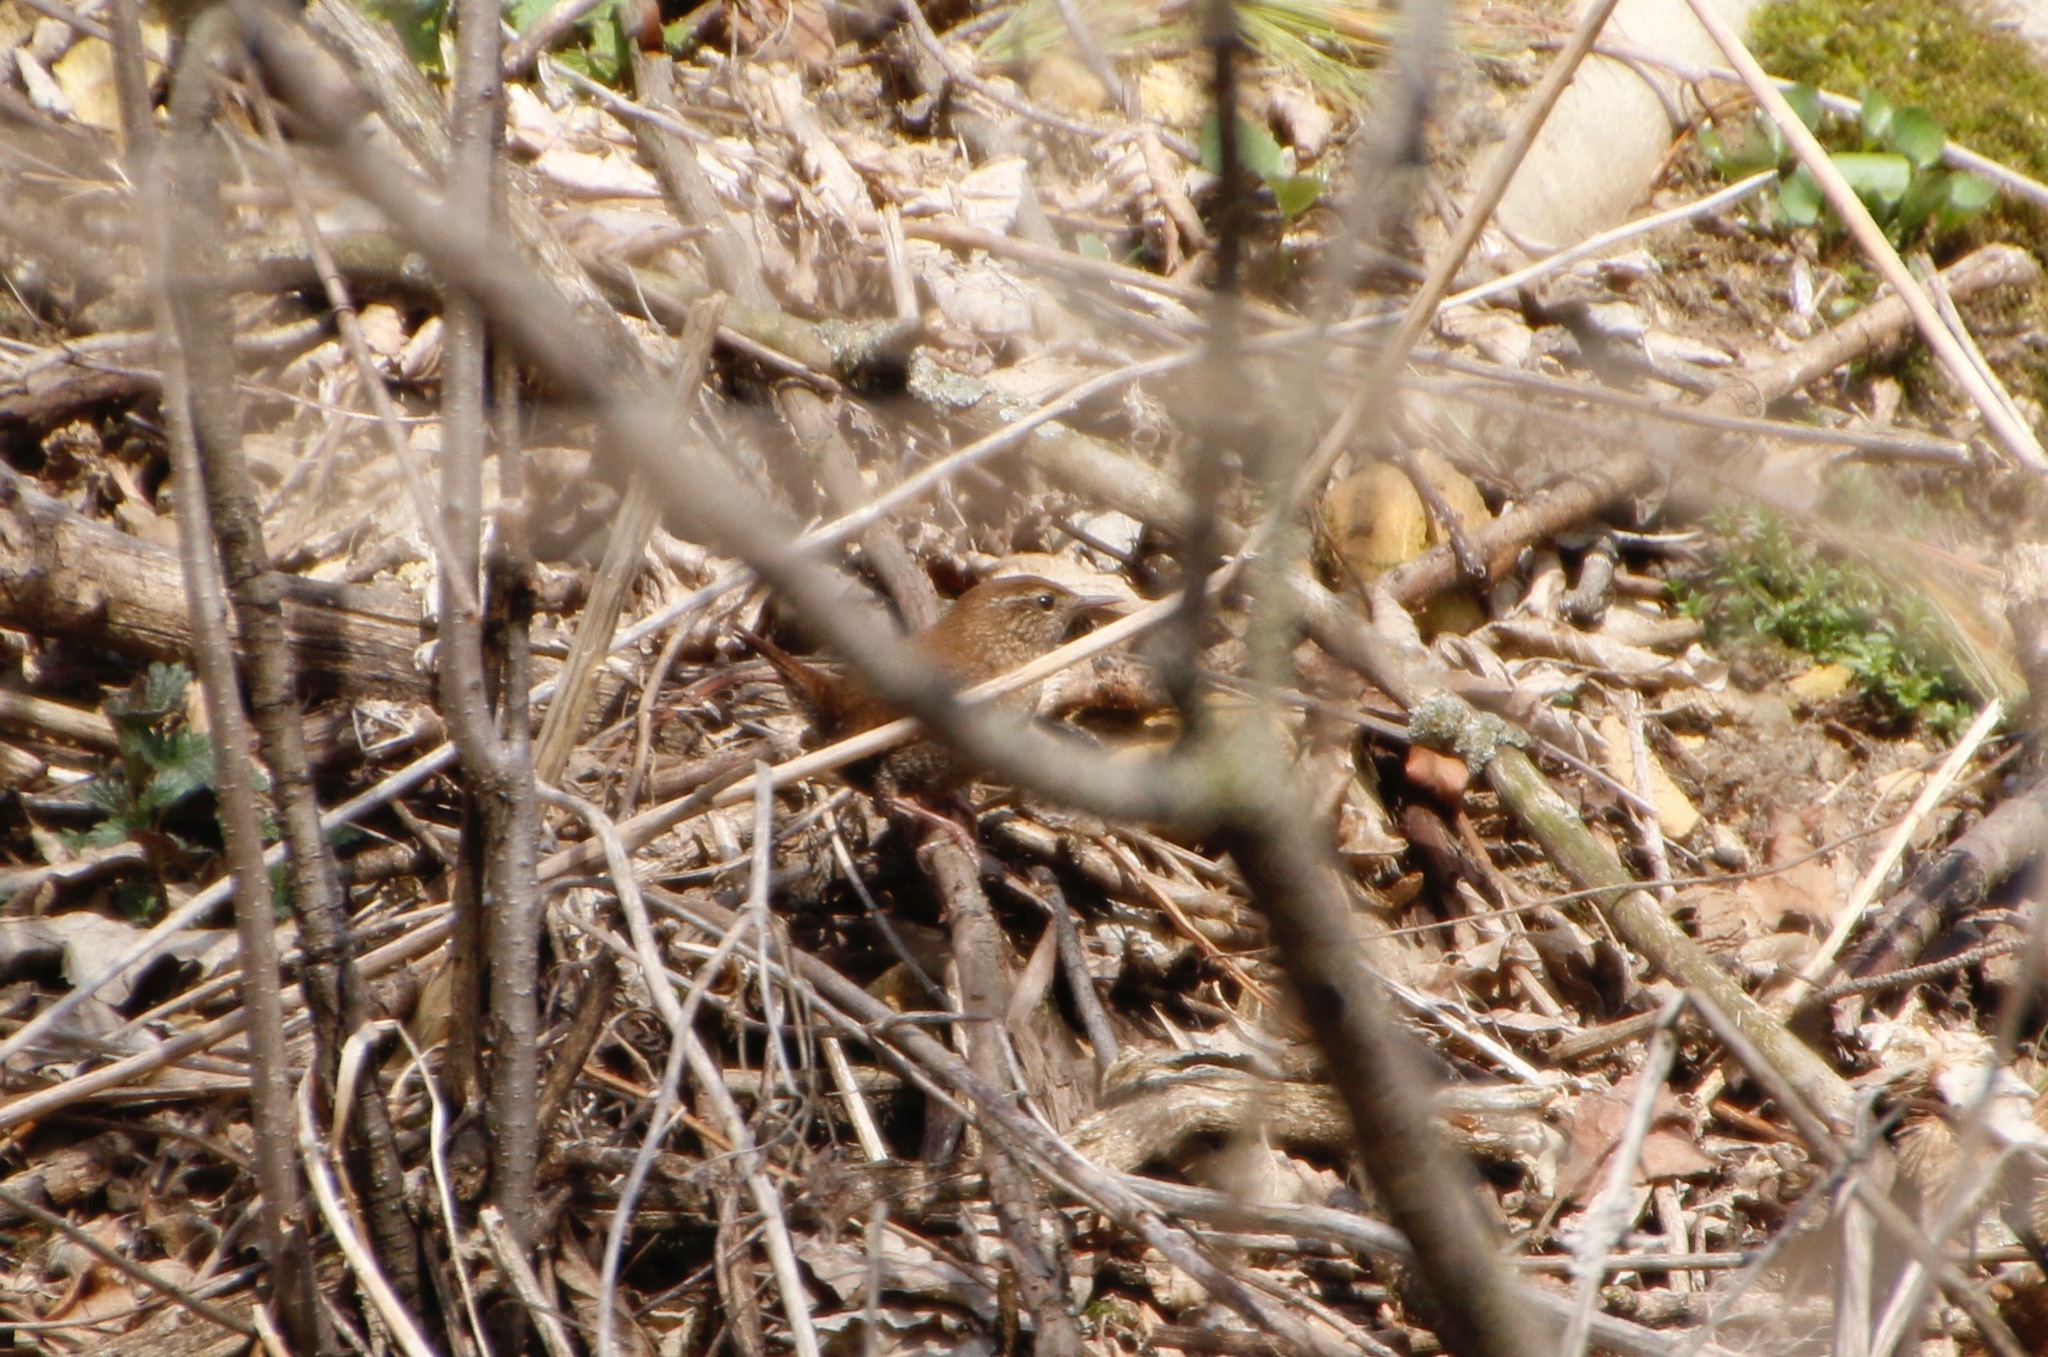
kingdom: Animalia
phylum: Chordata
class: Aves
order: Passeriformes
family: Troglodytidae
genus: Troglodytes
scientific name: Troglodytes hiemalis
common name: Winter wren
